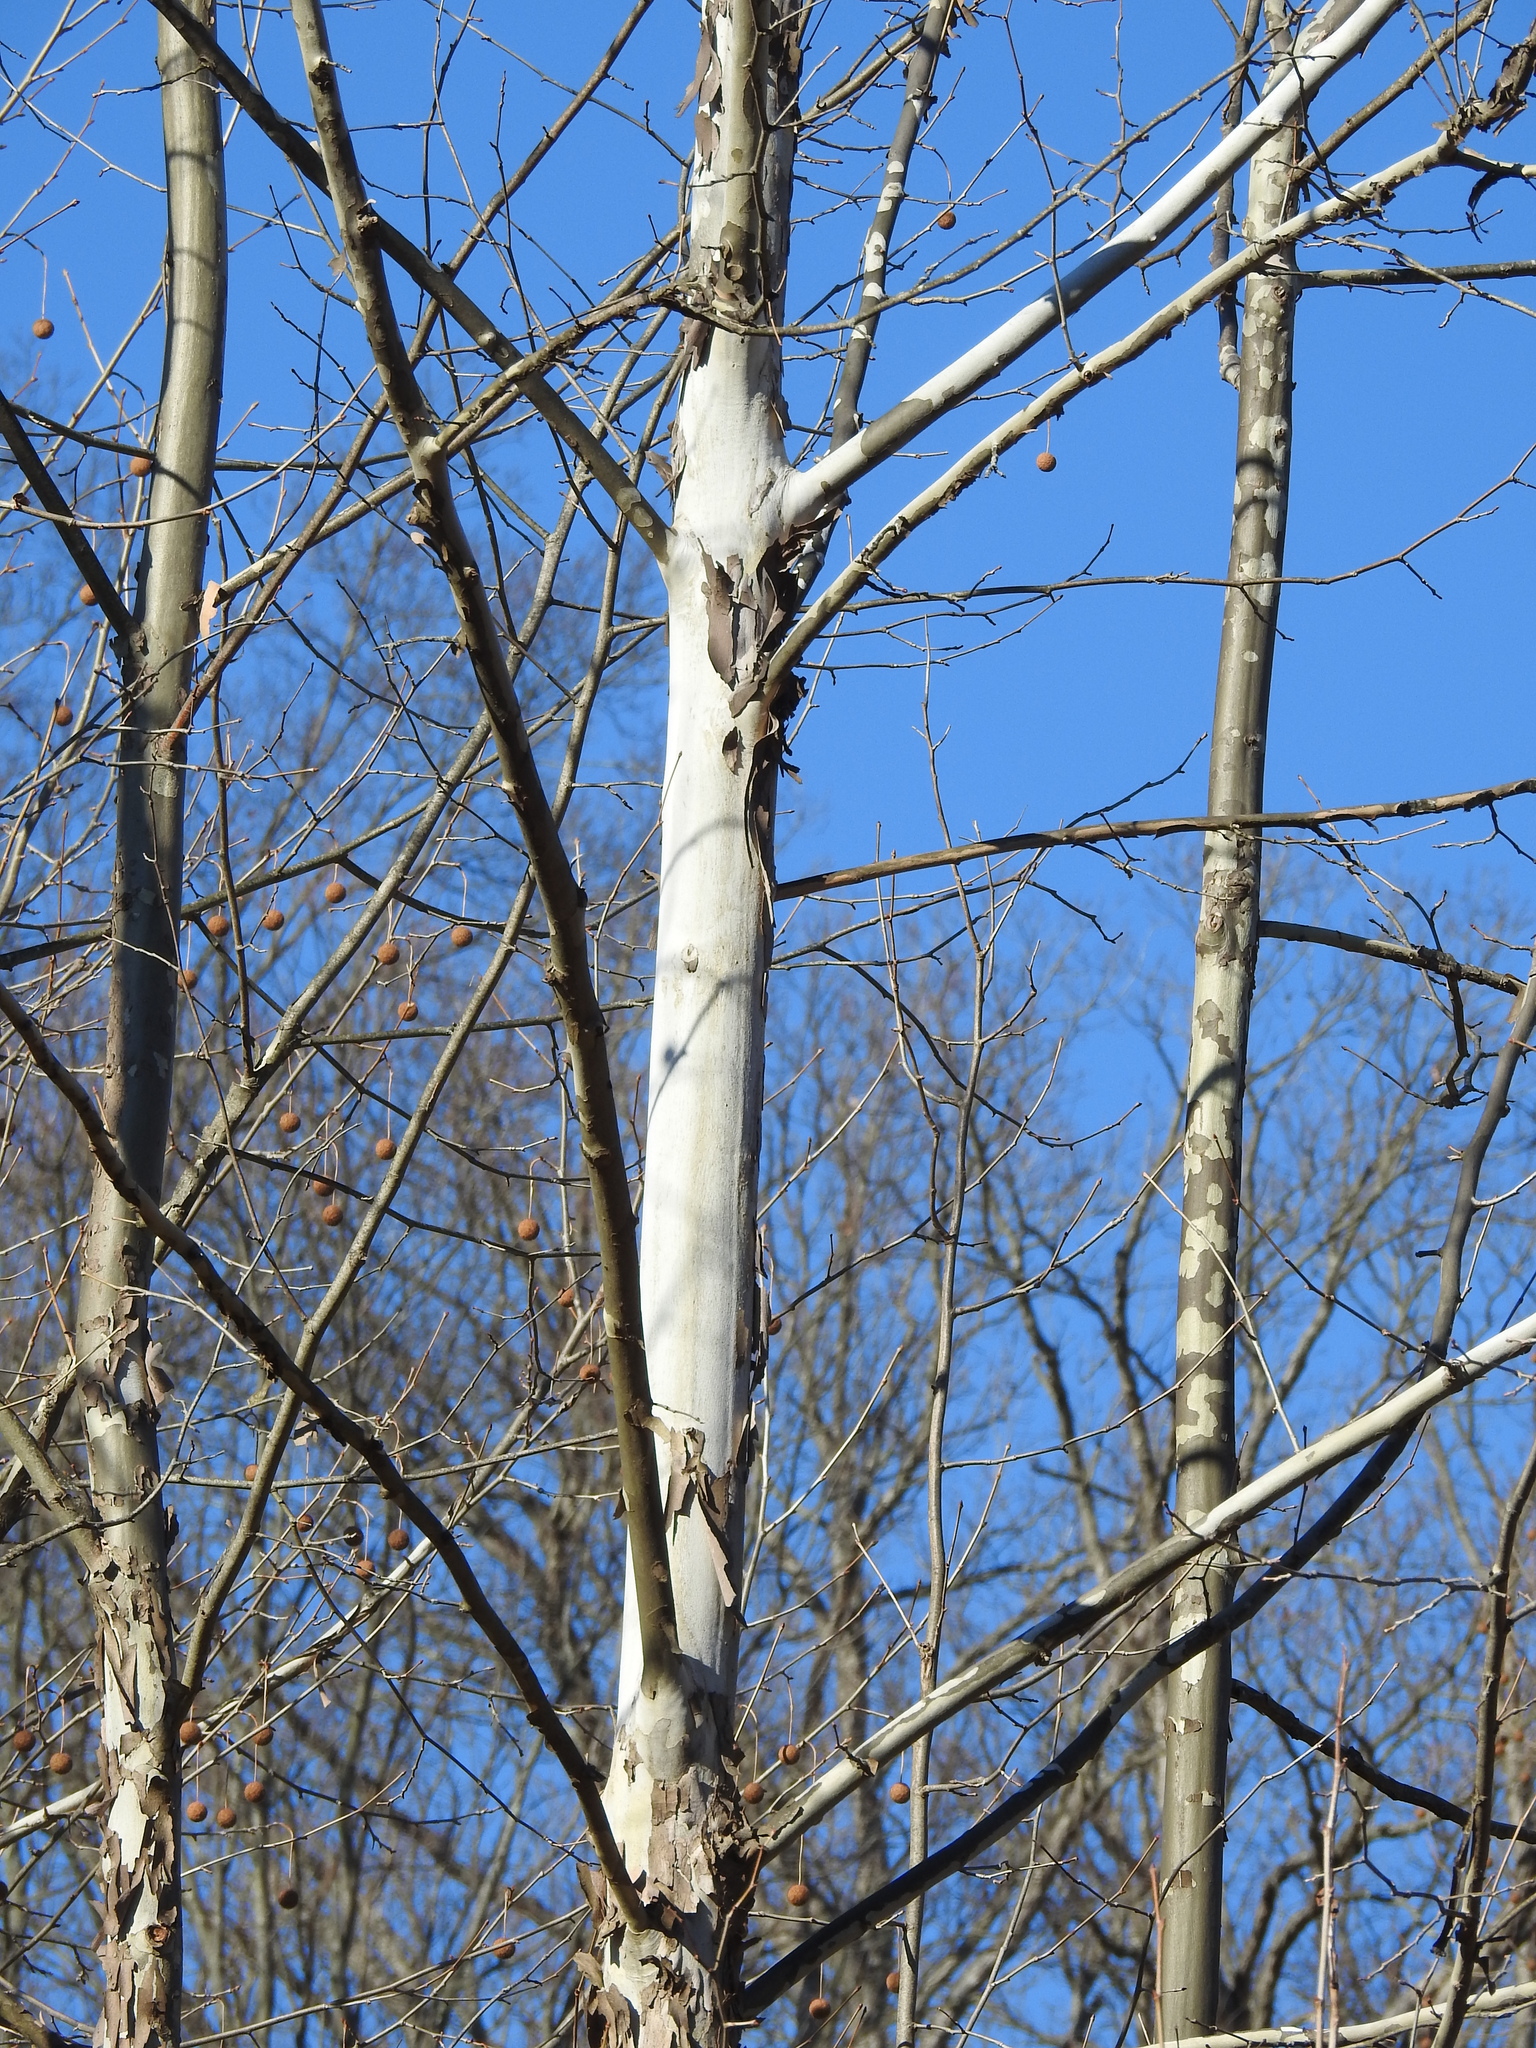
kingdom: Plantae
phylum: Tracheophyta
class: Magnoliopsida
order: Proteales
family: Platanaceae
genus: Platanus
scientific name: Platanus occidentalis
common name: American sycamore
